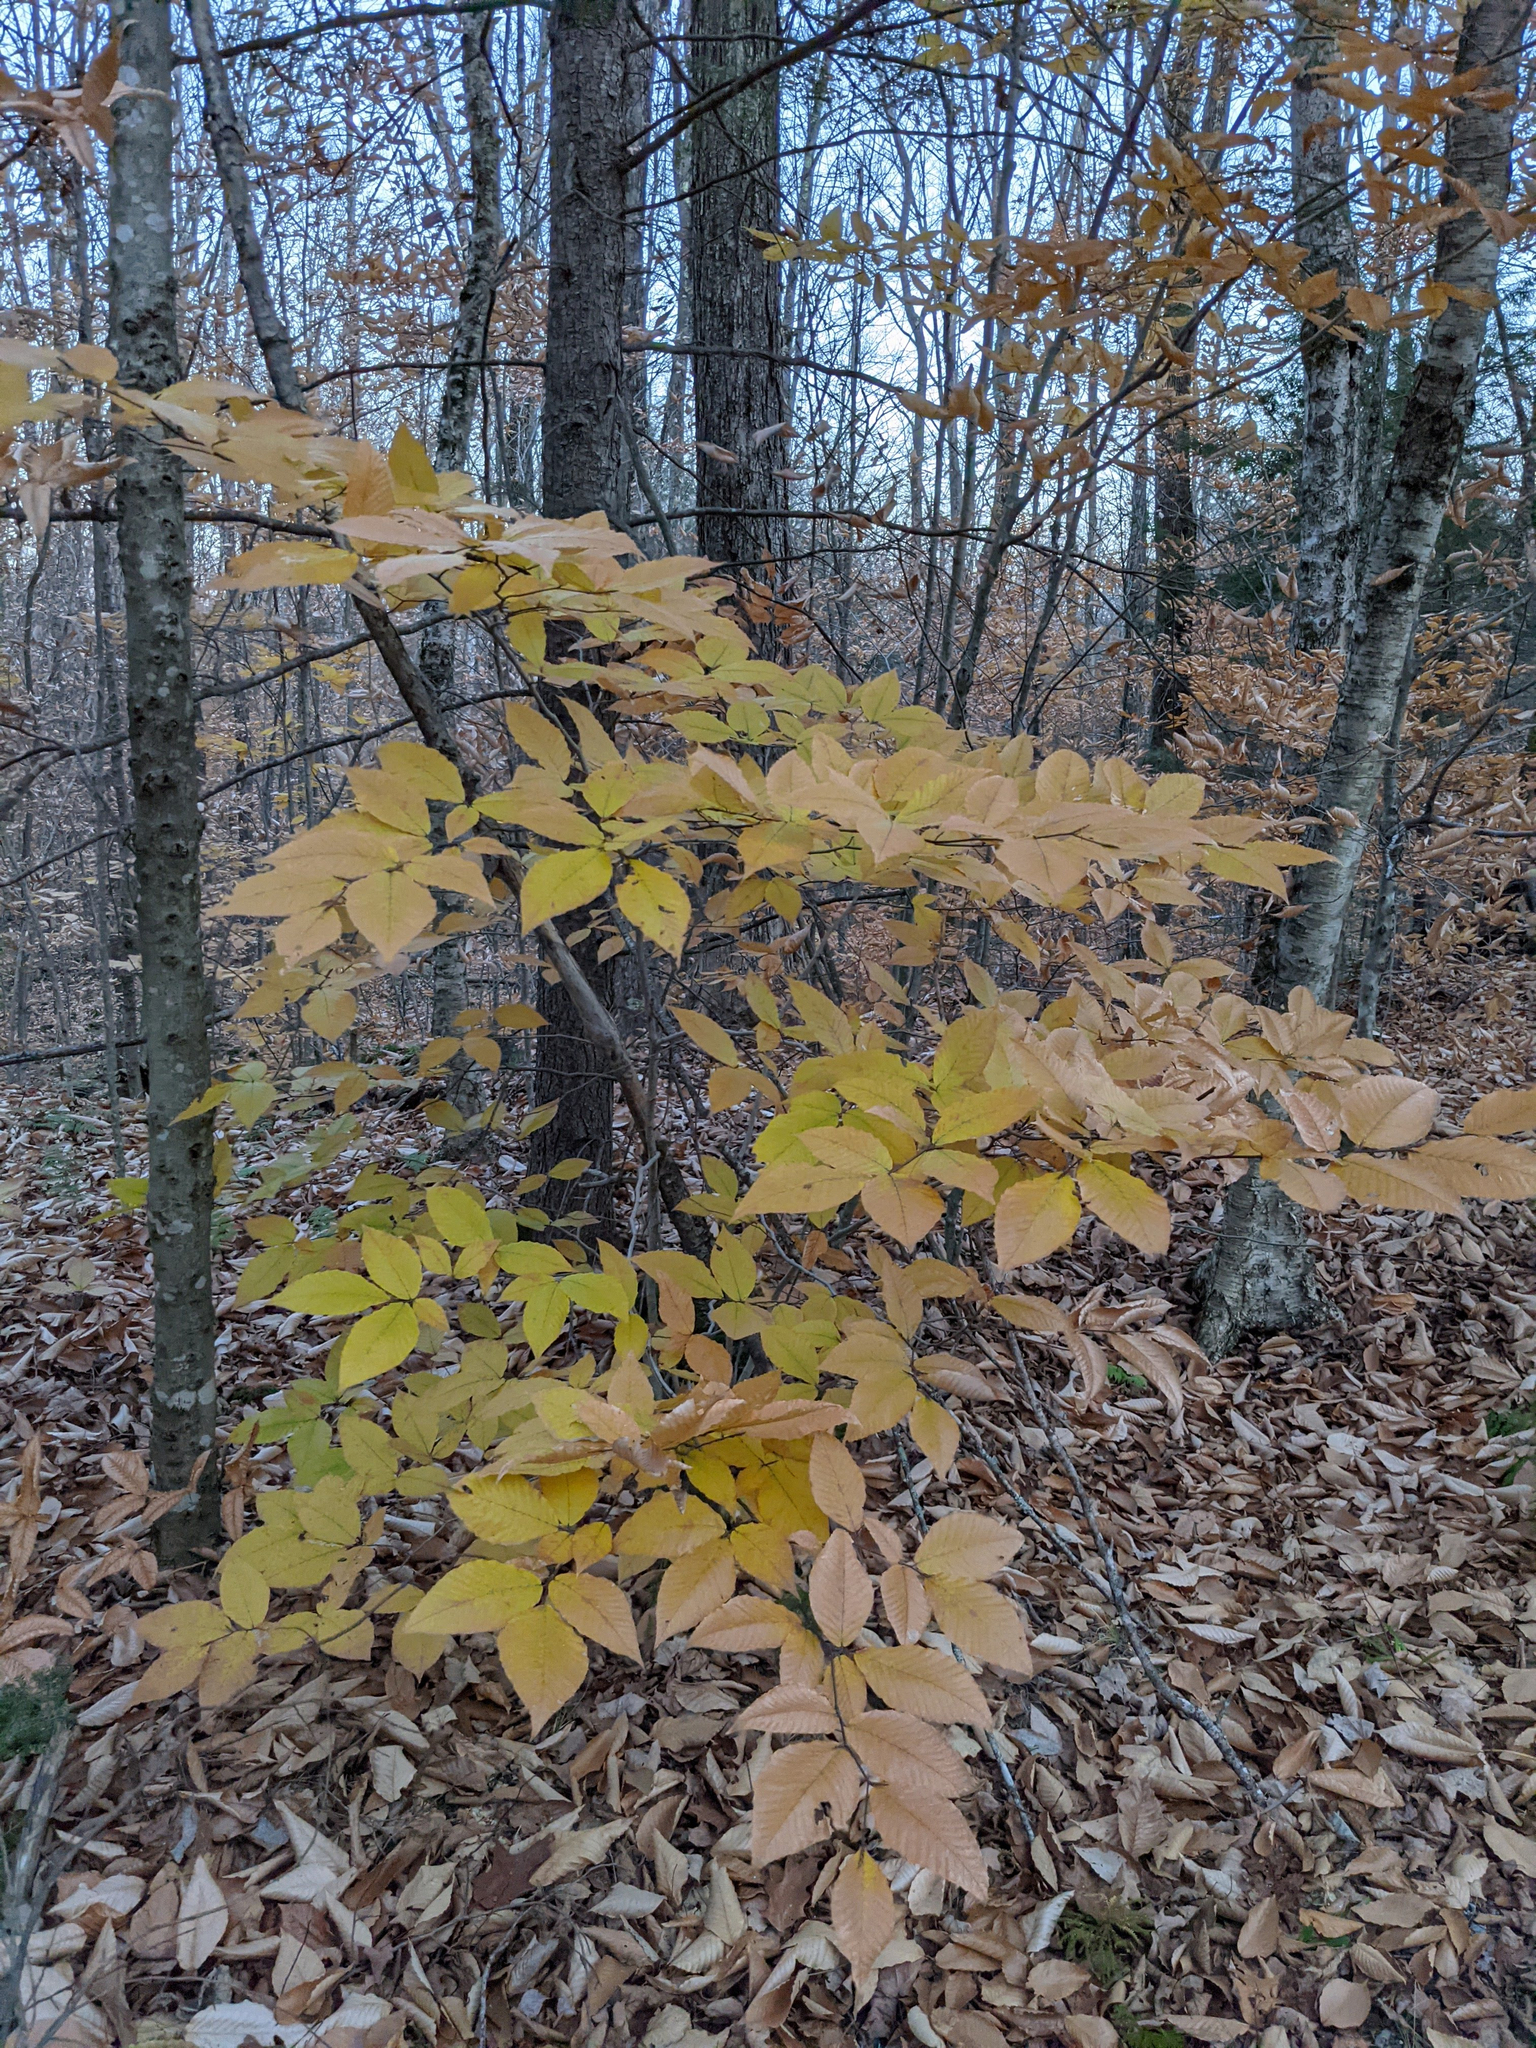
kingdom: Plantae
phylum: Tracheophyta
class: Magnoliopsida
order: Fagales
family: Fagaceae
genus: Fagus
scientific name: Fagus grandifolia
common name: American beech
